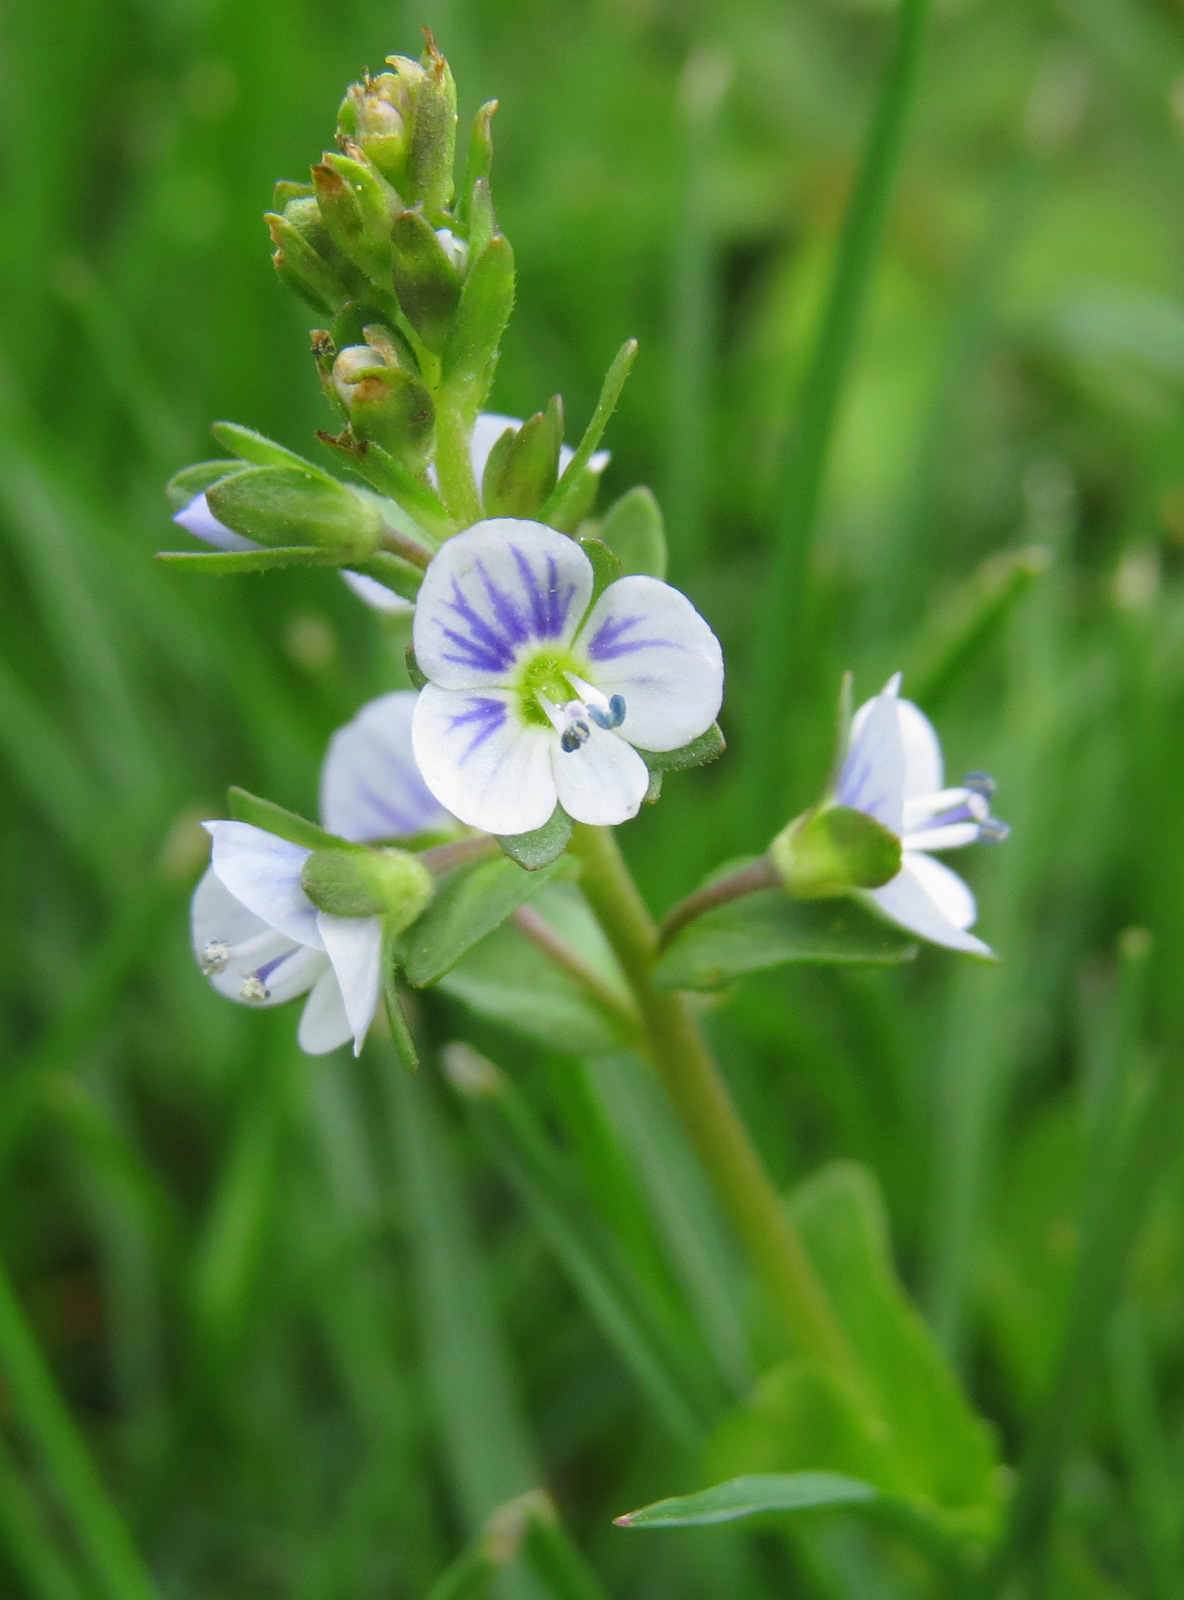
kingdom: Plantae
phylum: Tracheophyta
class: Magnoliopsida
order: Lamiales
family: Plantaginaceae
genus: Veronica
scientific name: Veronica serpyllifolia
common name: Thyme-leaved speedwell
